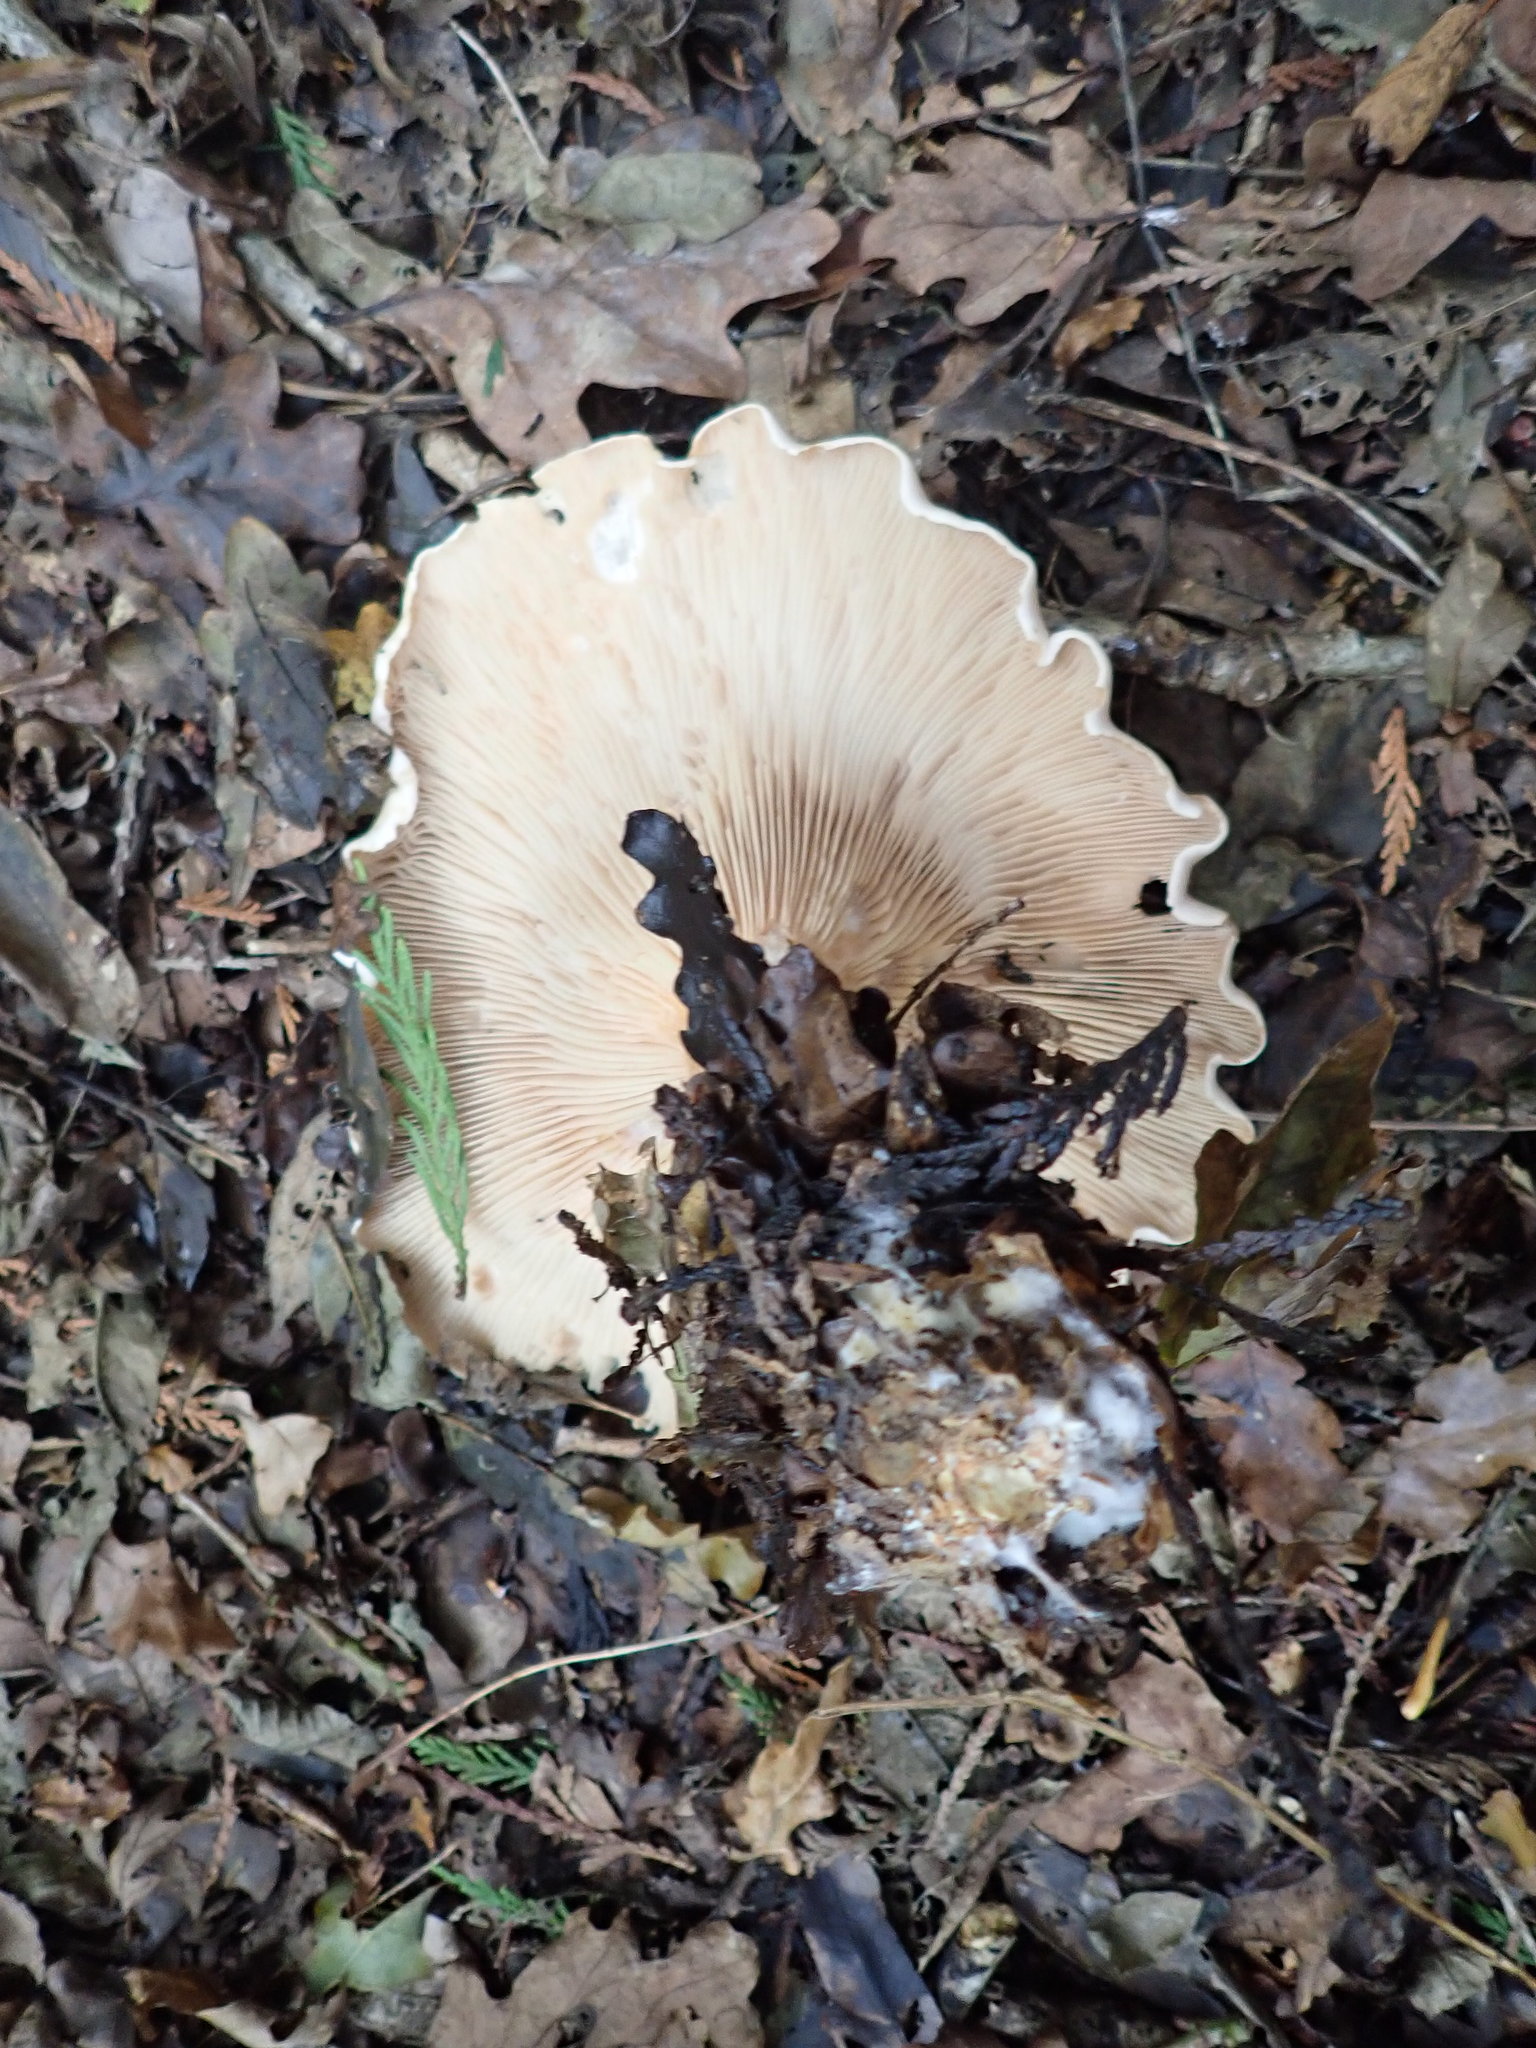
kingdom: Fungi
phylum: Basidiomycota
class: Agaricomycetes
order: Agaricales
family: Tricholomataceae
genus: Infundibulicybe
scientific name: Infundibulicybe geotropa
